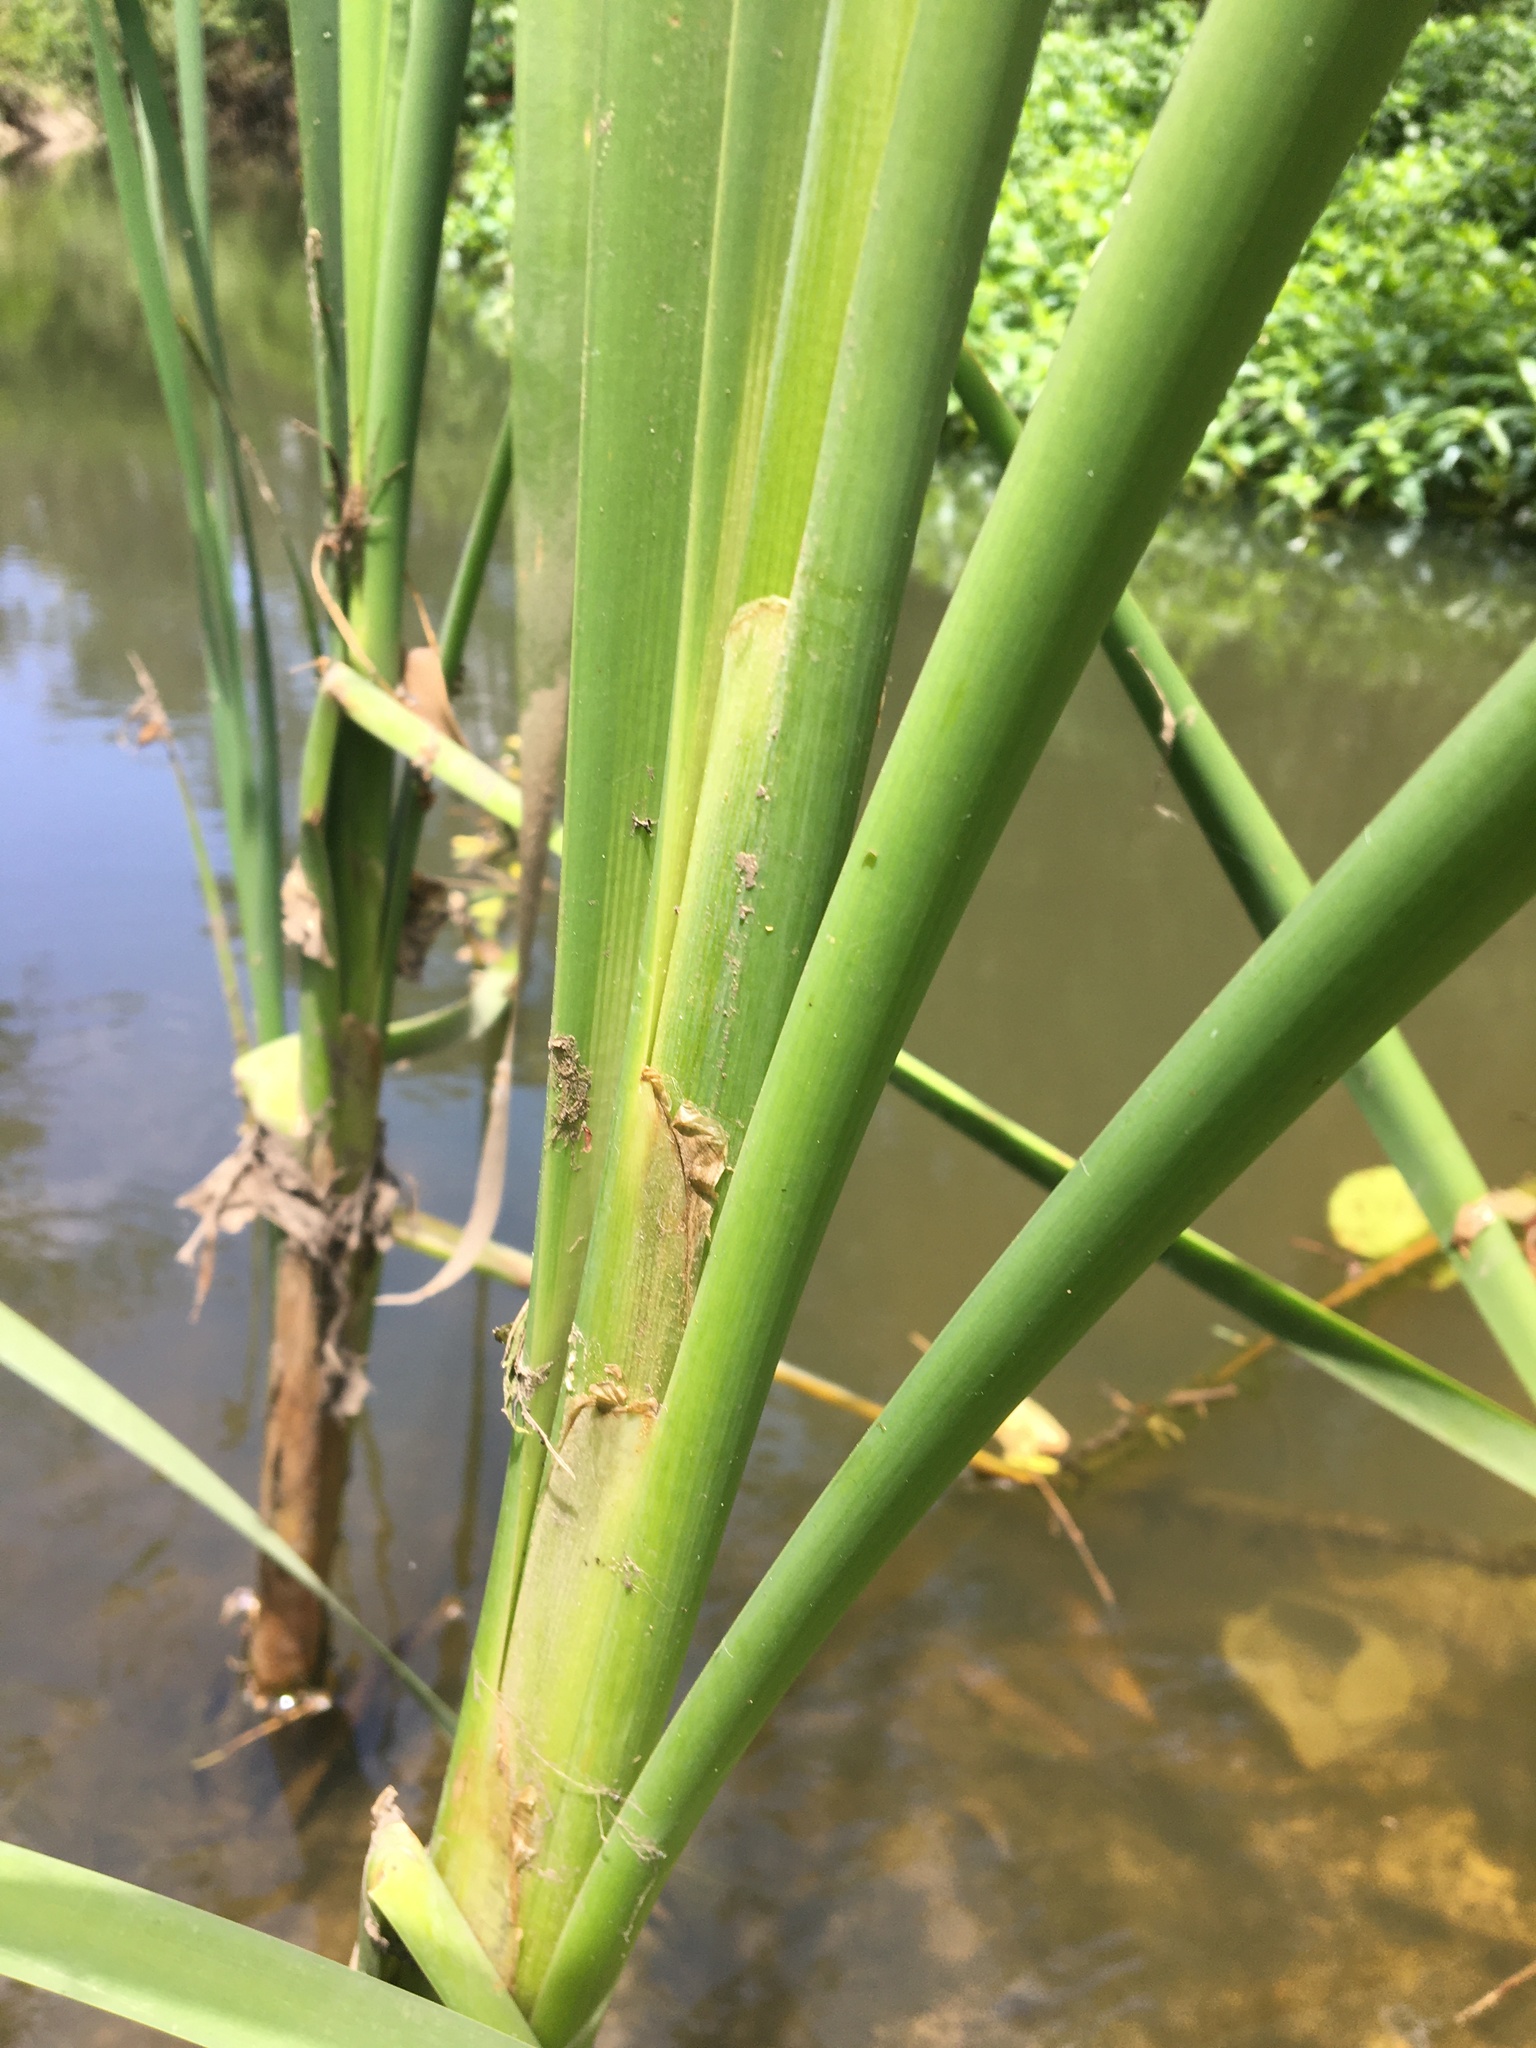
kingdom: Plantae
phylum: Tracheophyta
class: Liliopsida
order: Poales
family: Typhaceae
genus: Typha
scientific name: Typha orientalis
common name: Bullrush
